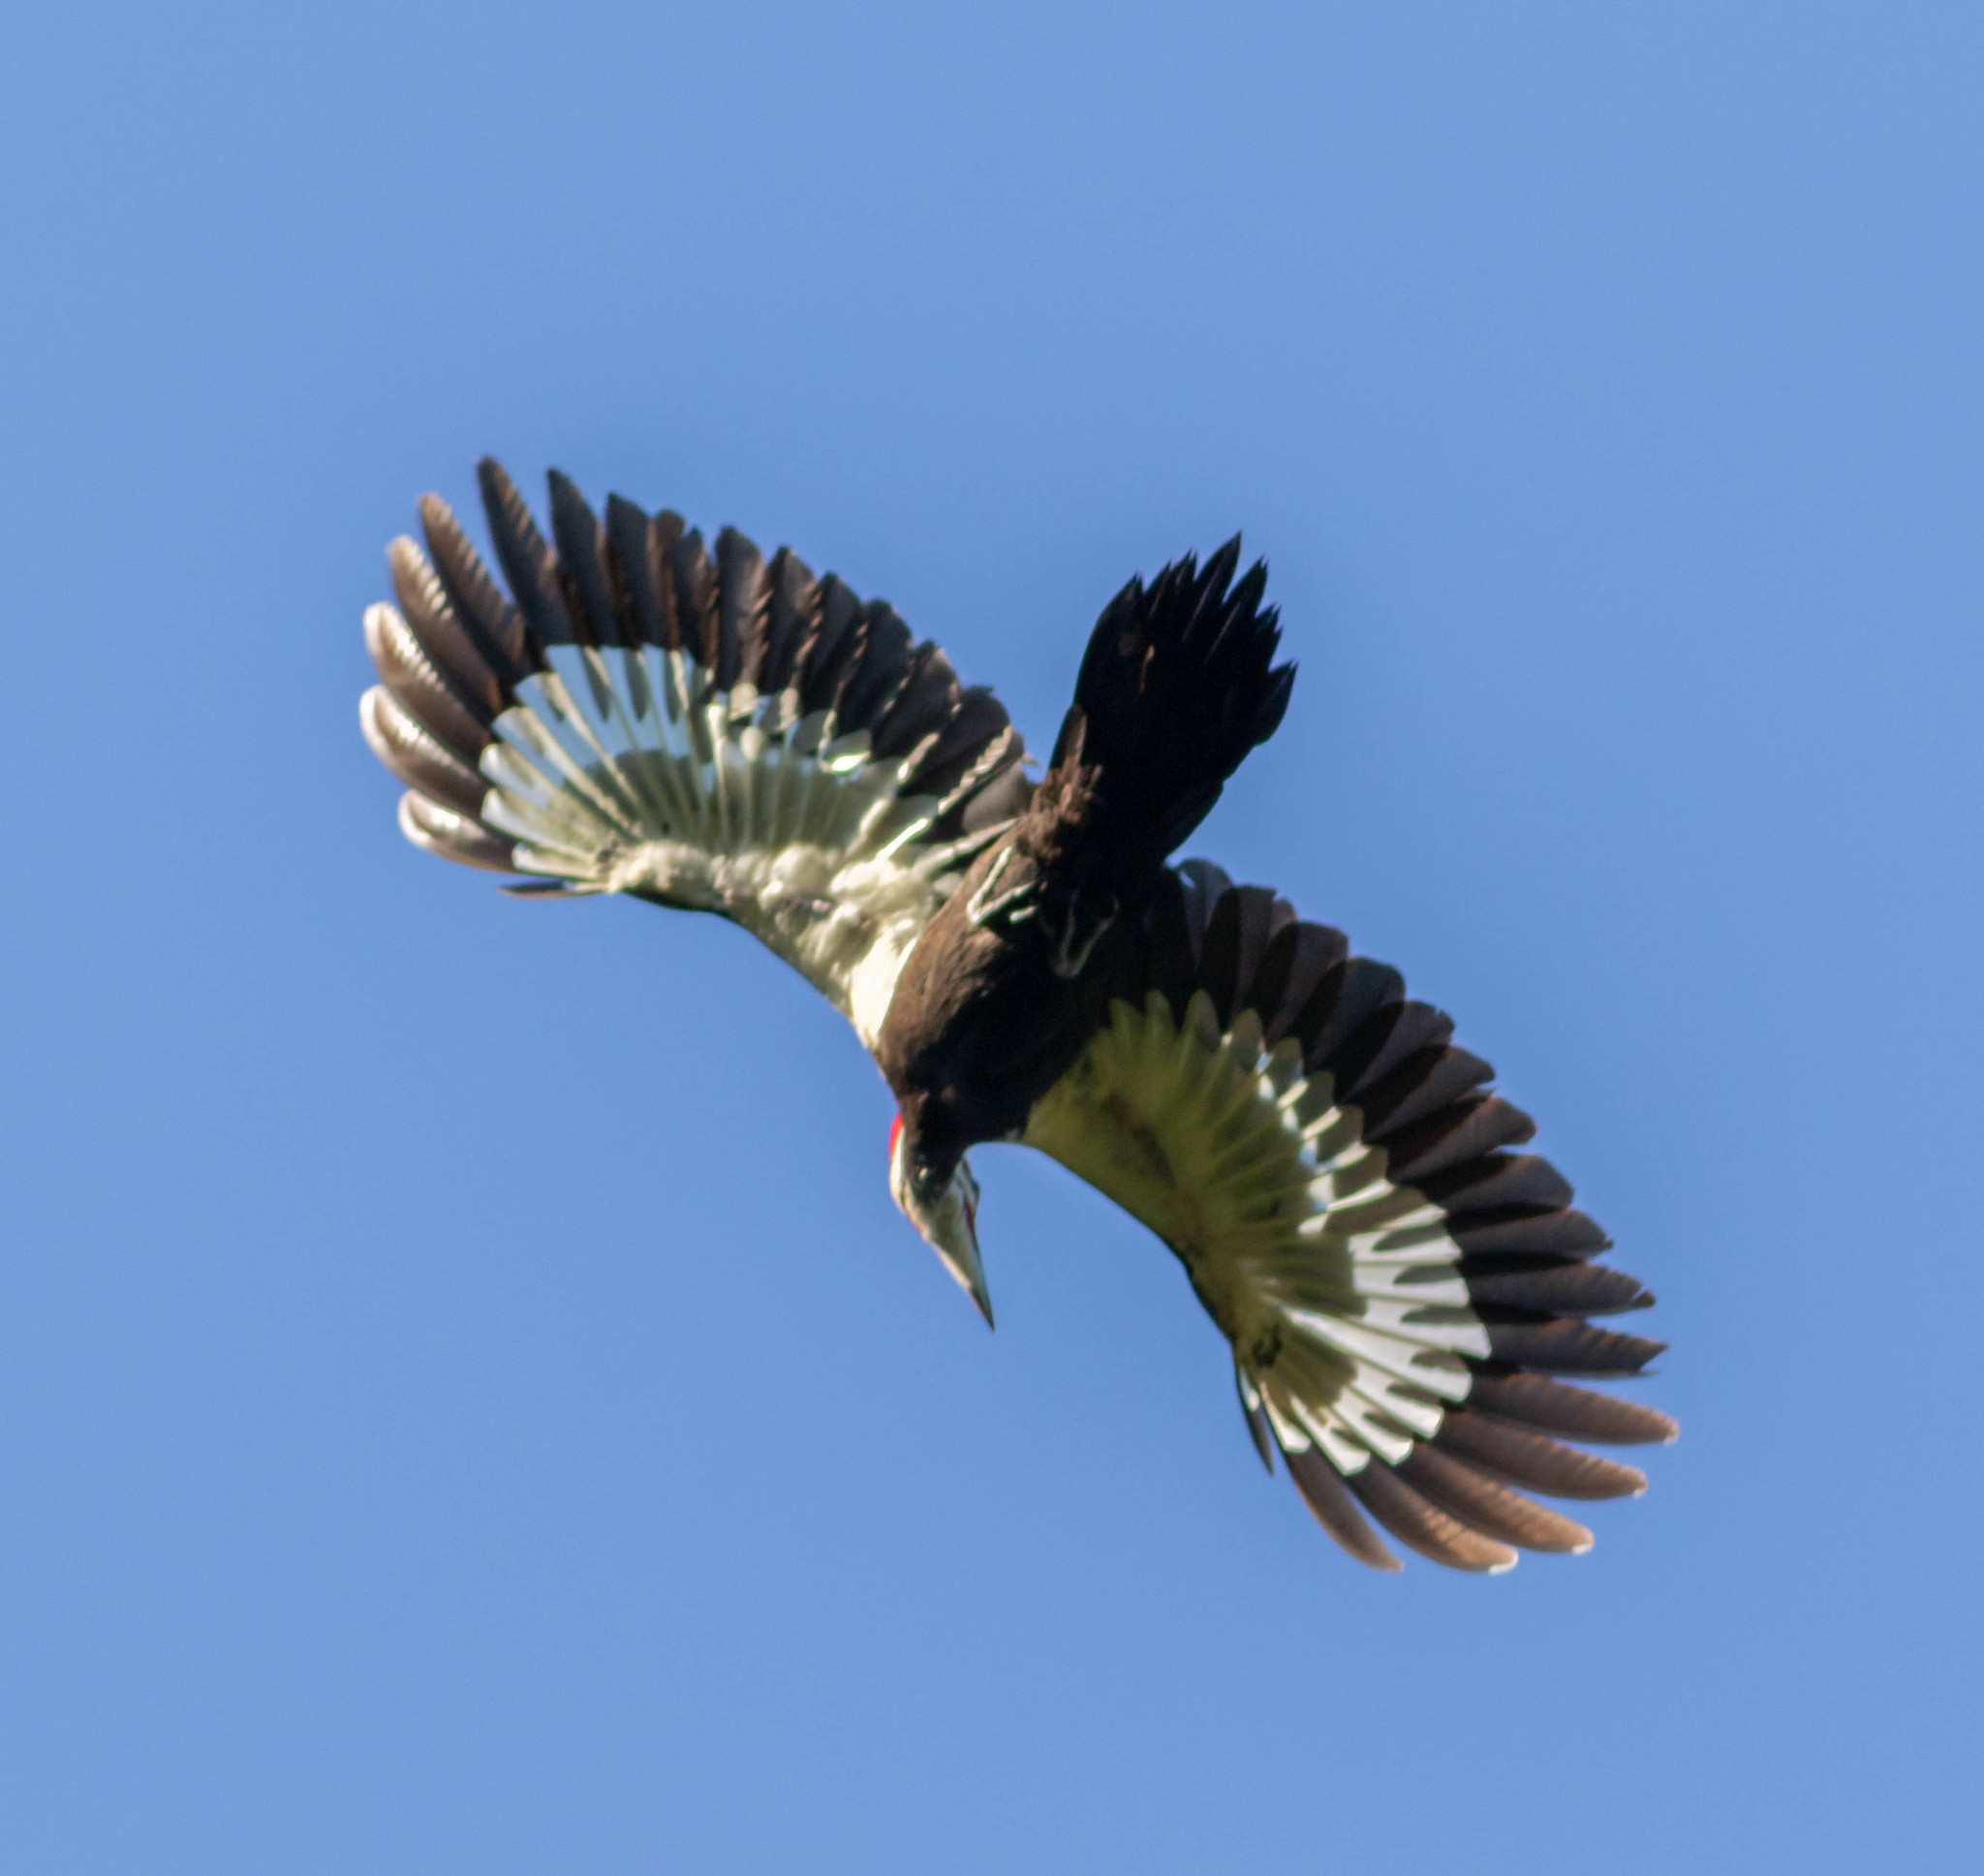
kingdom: Animalia
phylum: Chordata
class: Aves
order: Piciformes
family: Picidae
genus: Dryocopus
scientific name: Dryocopus pileatus
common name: Pileated woodpecker
